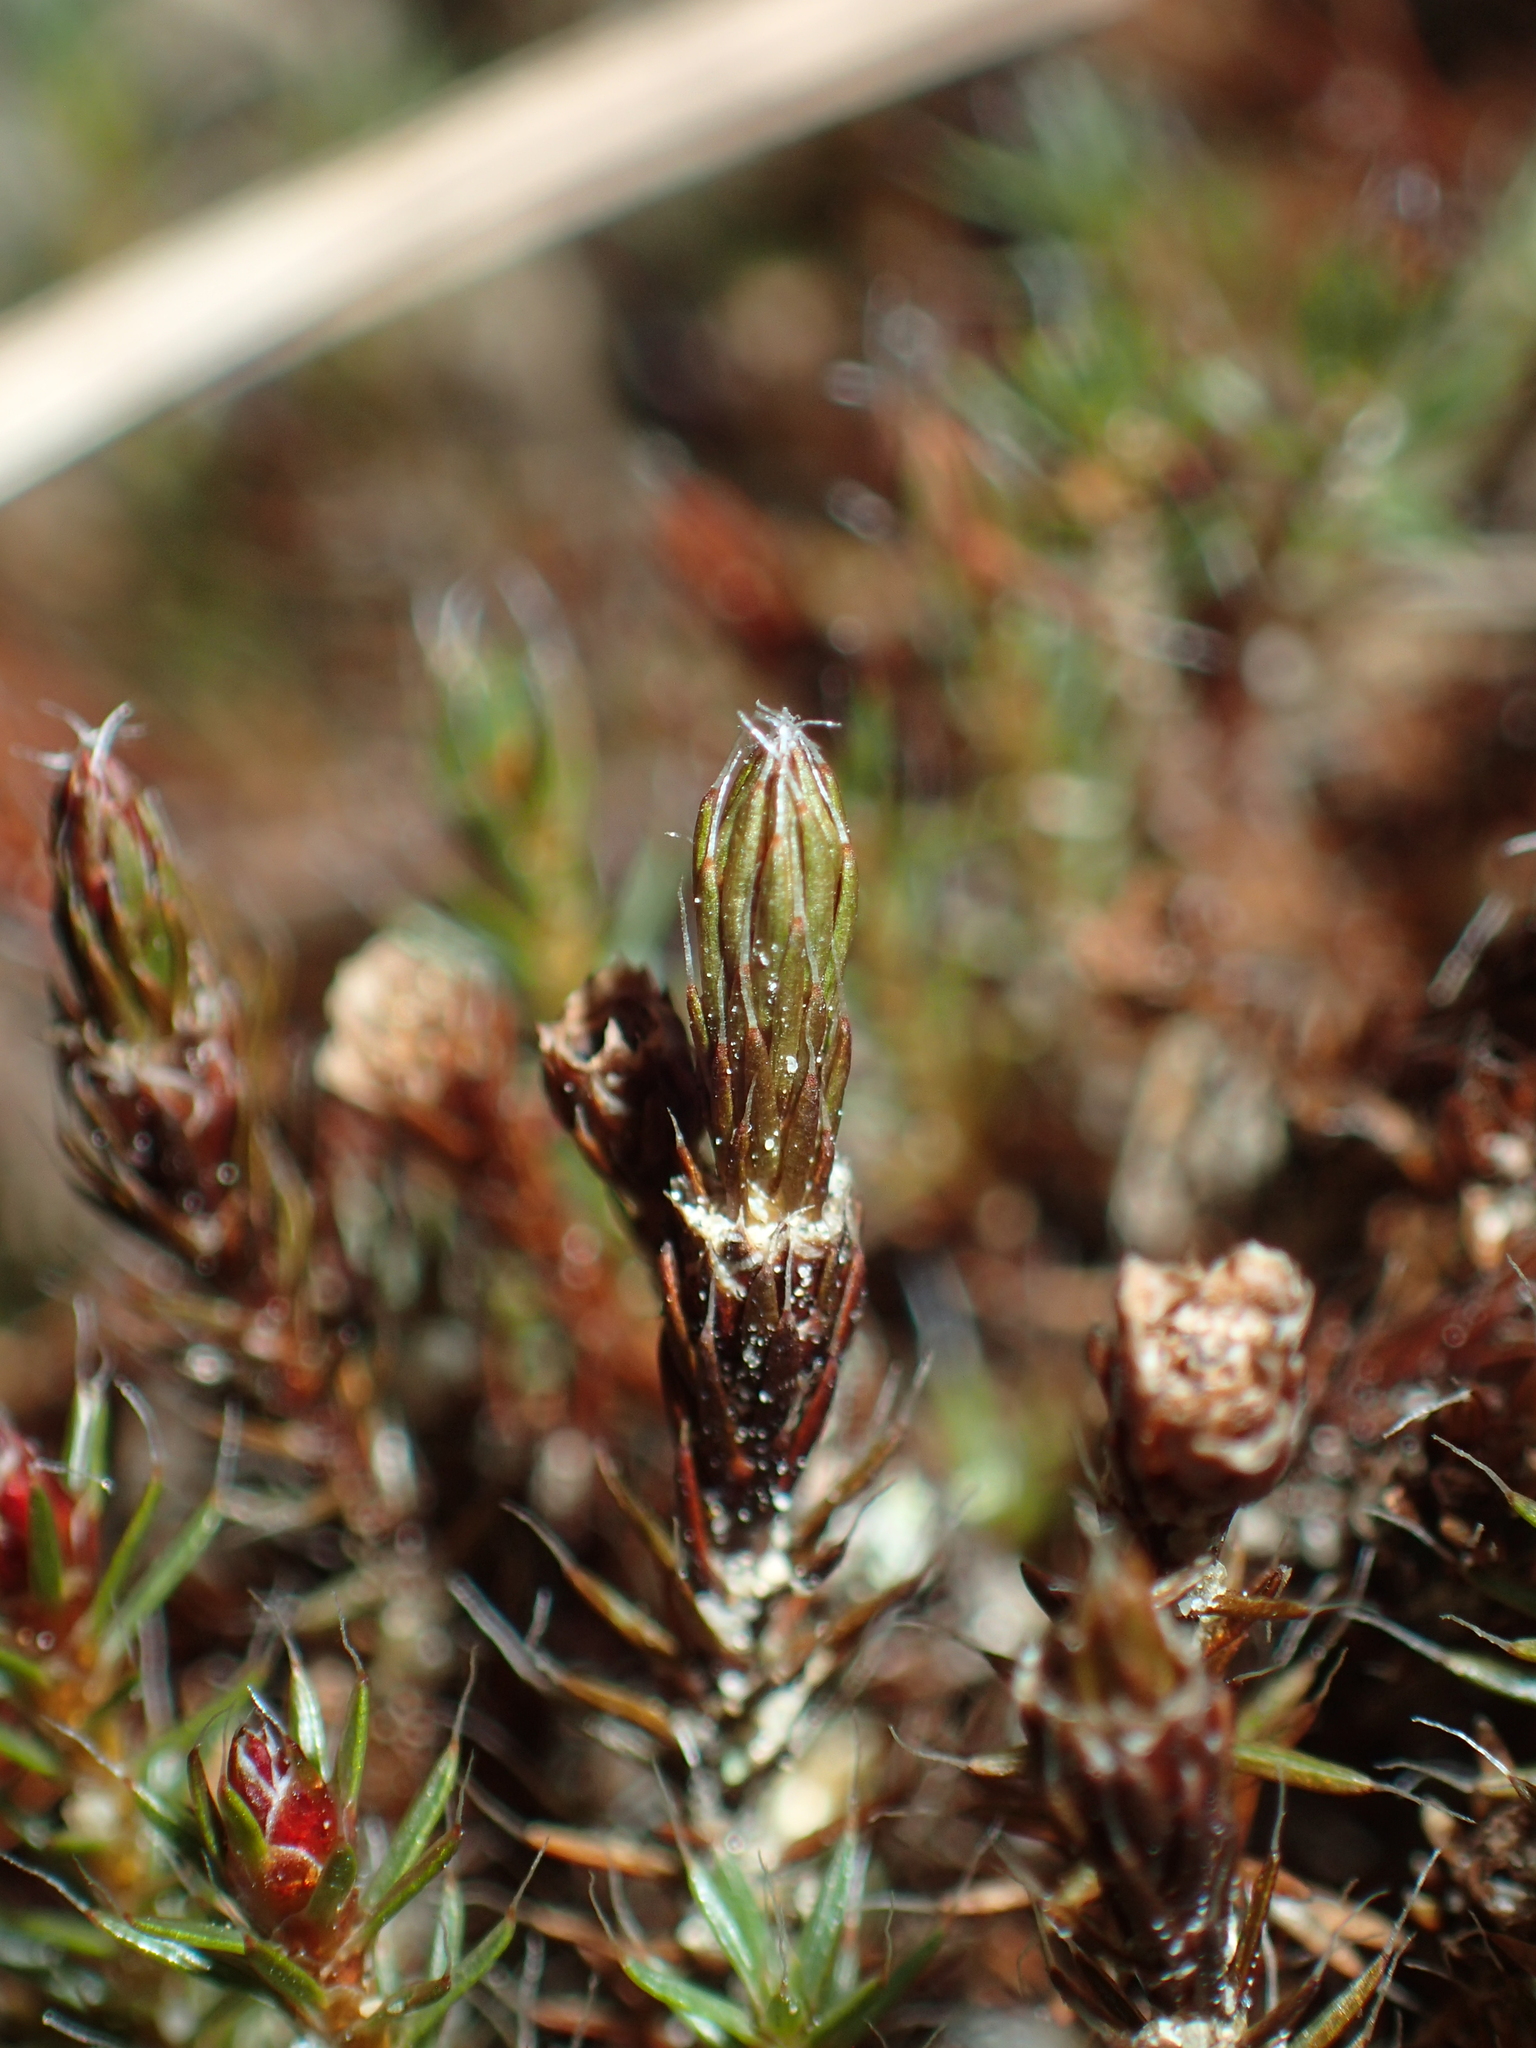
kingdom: Plantae
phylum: Bryophyta
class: Polytrichopsida
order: Polytrichales
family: Polytrichaceae
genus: Polytrichum
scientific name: Polytrichum piliferum
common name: Bristly haircap
